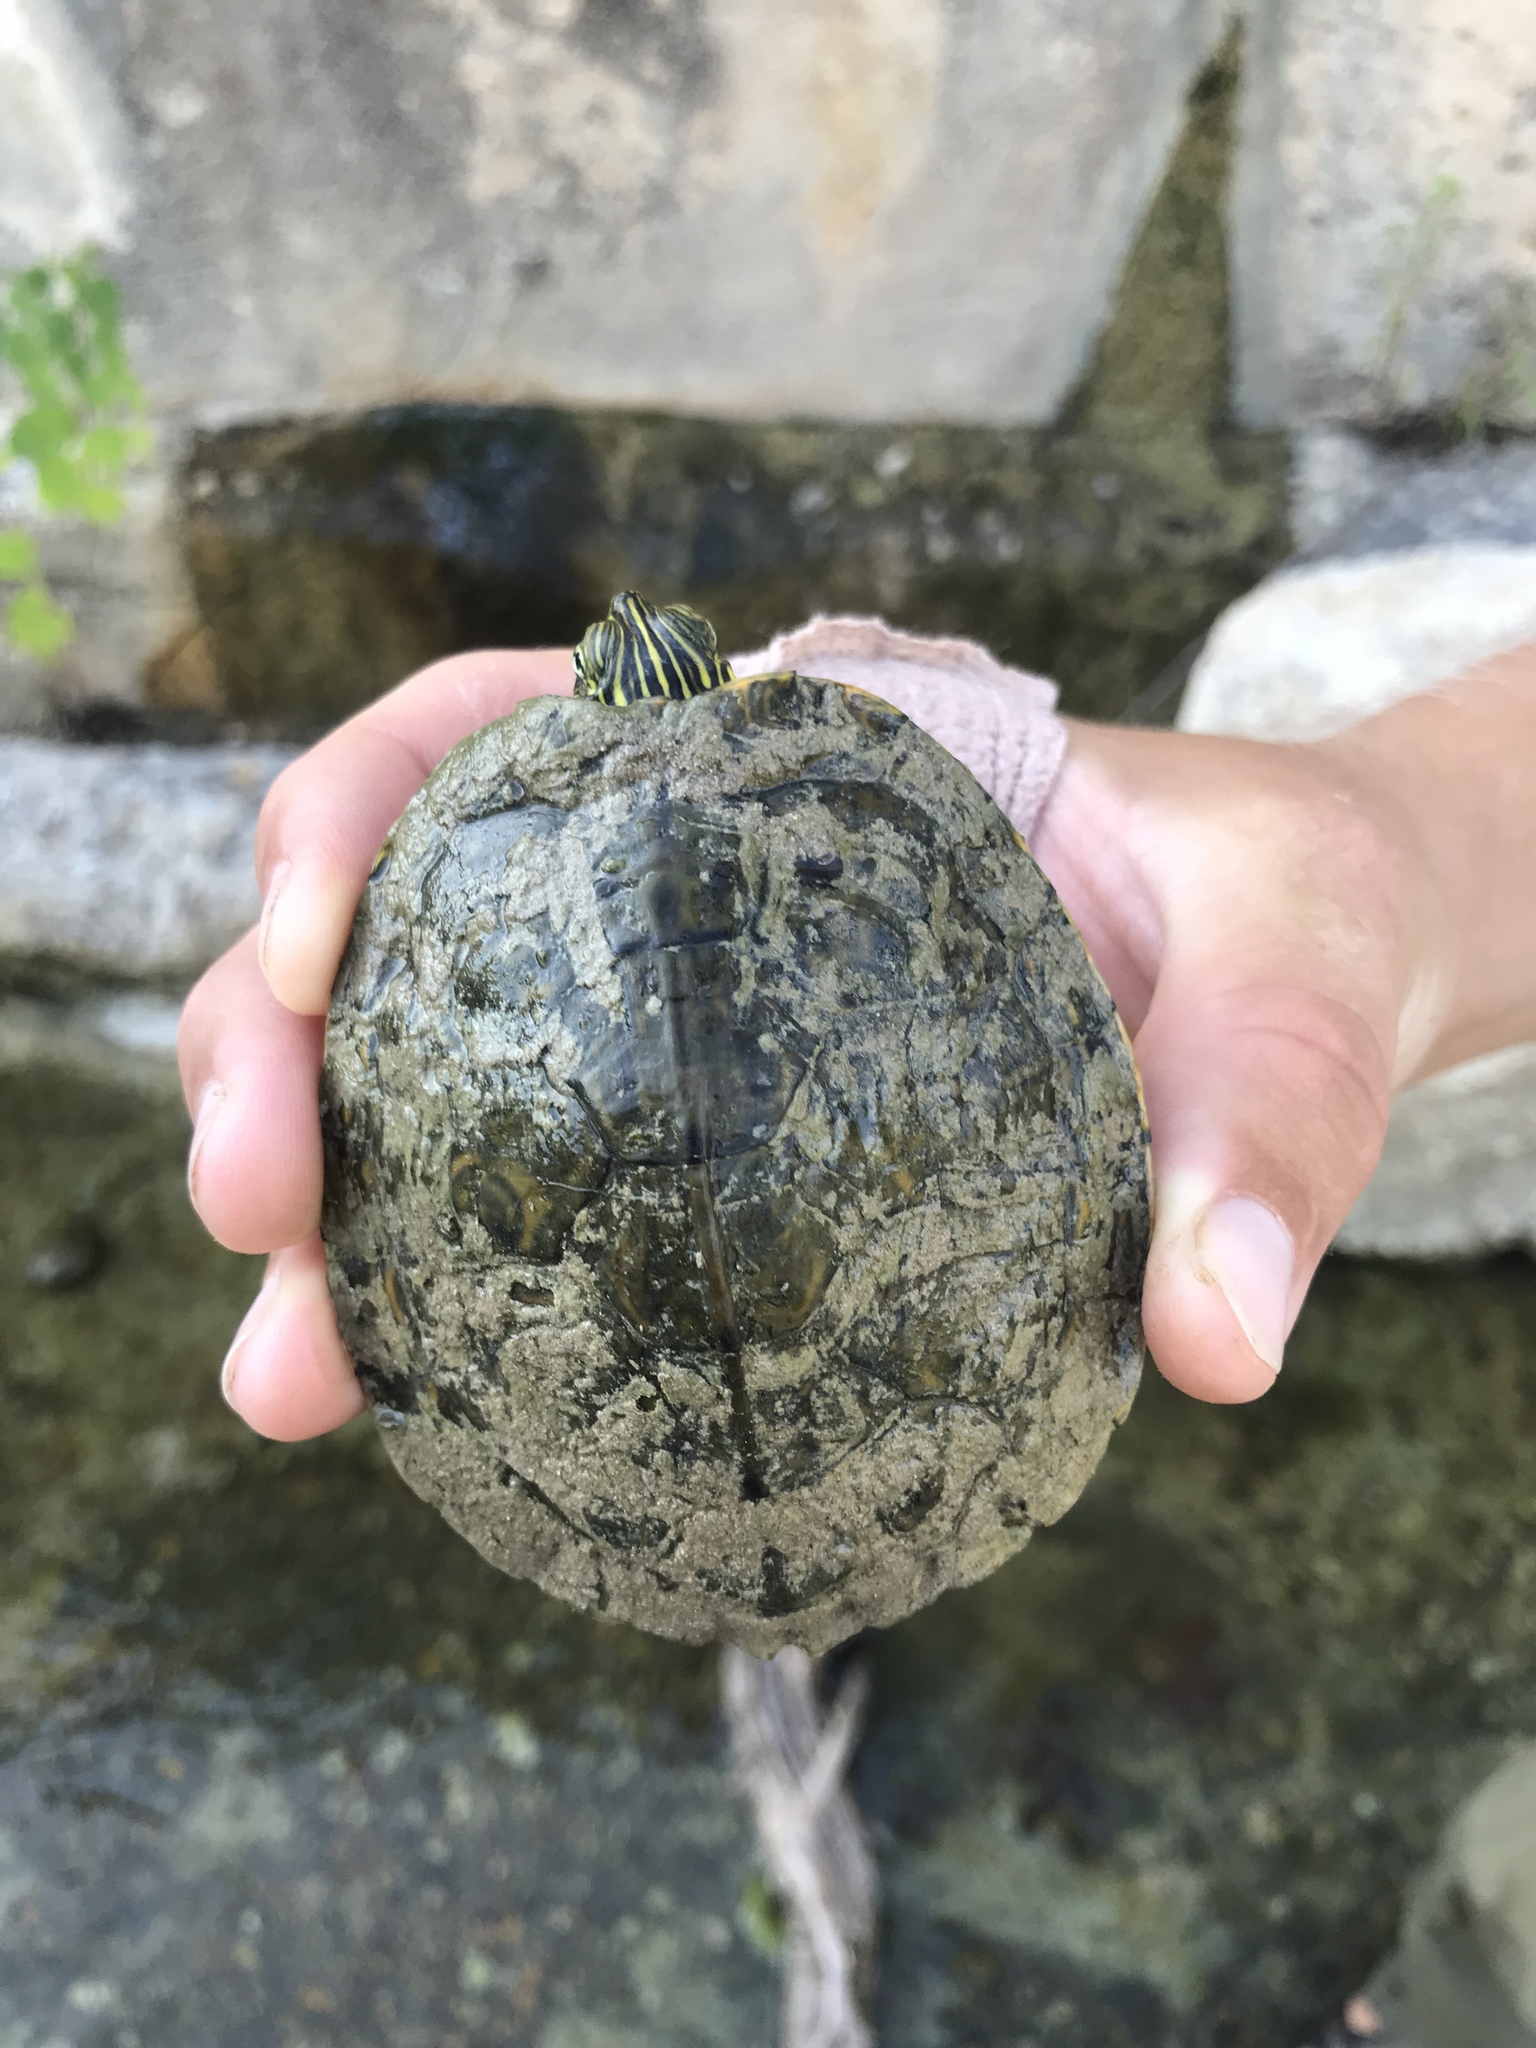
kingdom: Animalia
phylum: Chordata
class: Testudines
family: Emydidae
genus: Pseudemys
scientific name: Pseudemys texana
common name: Texas river cooter
